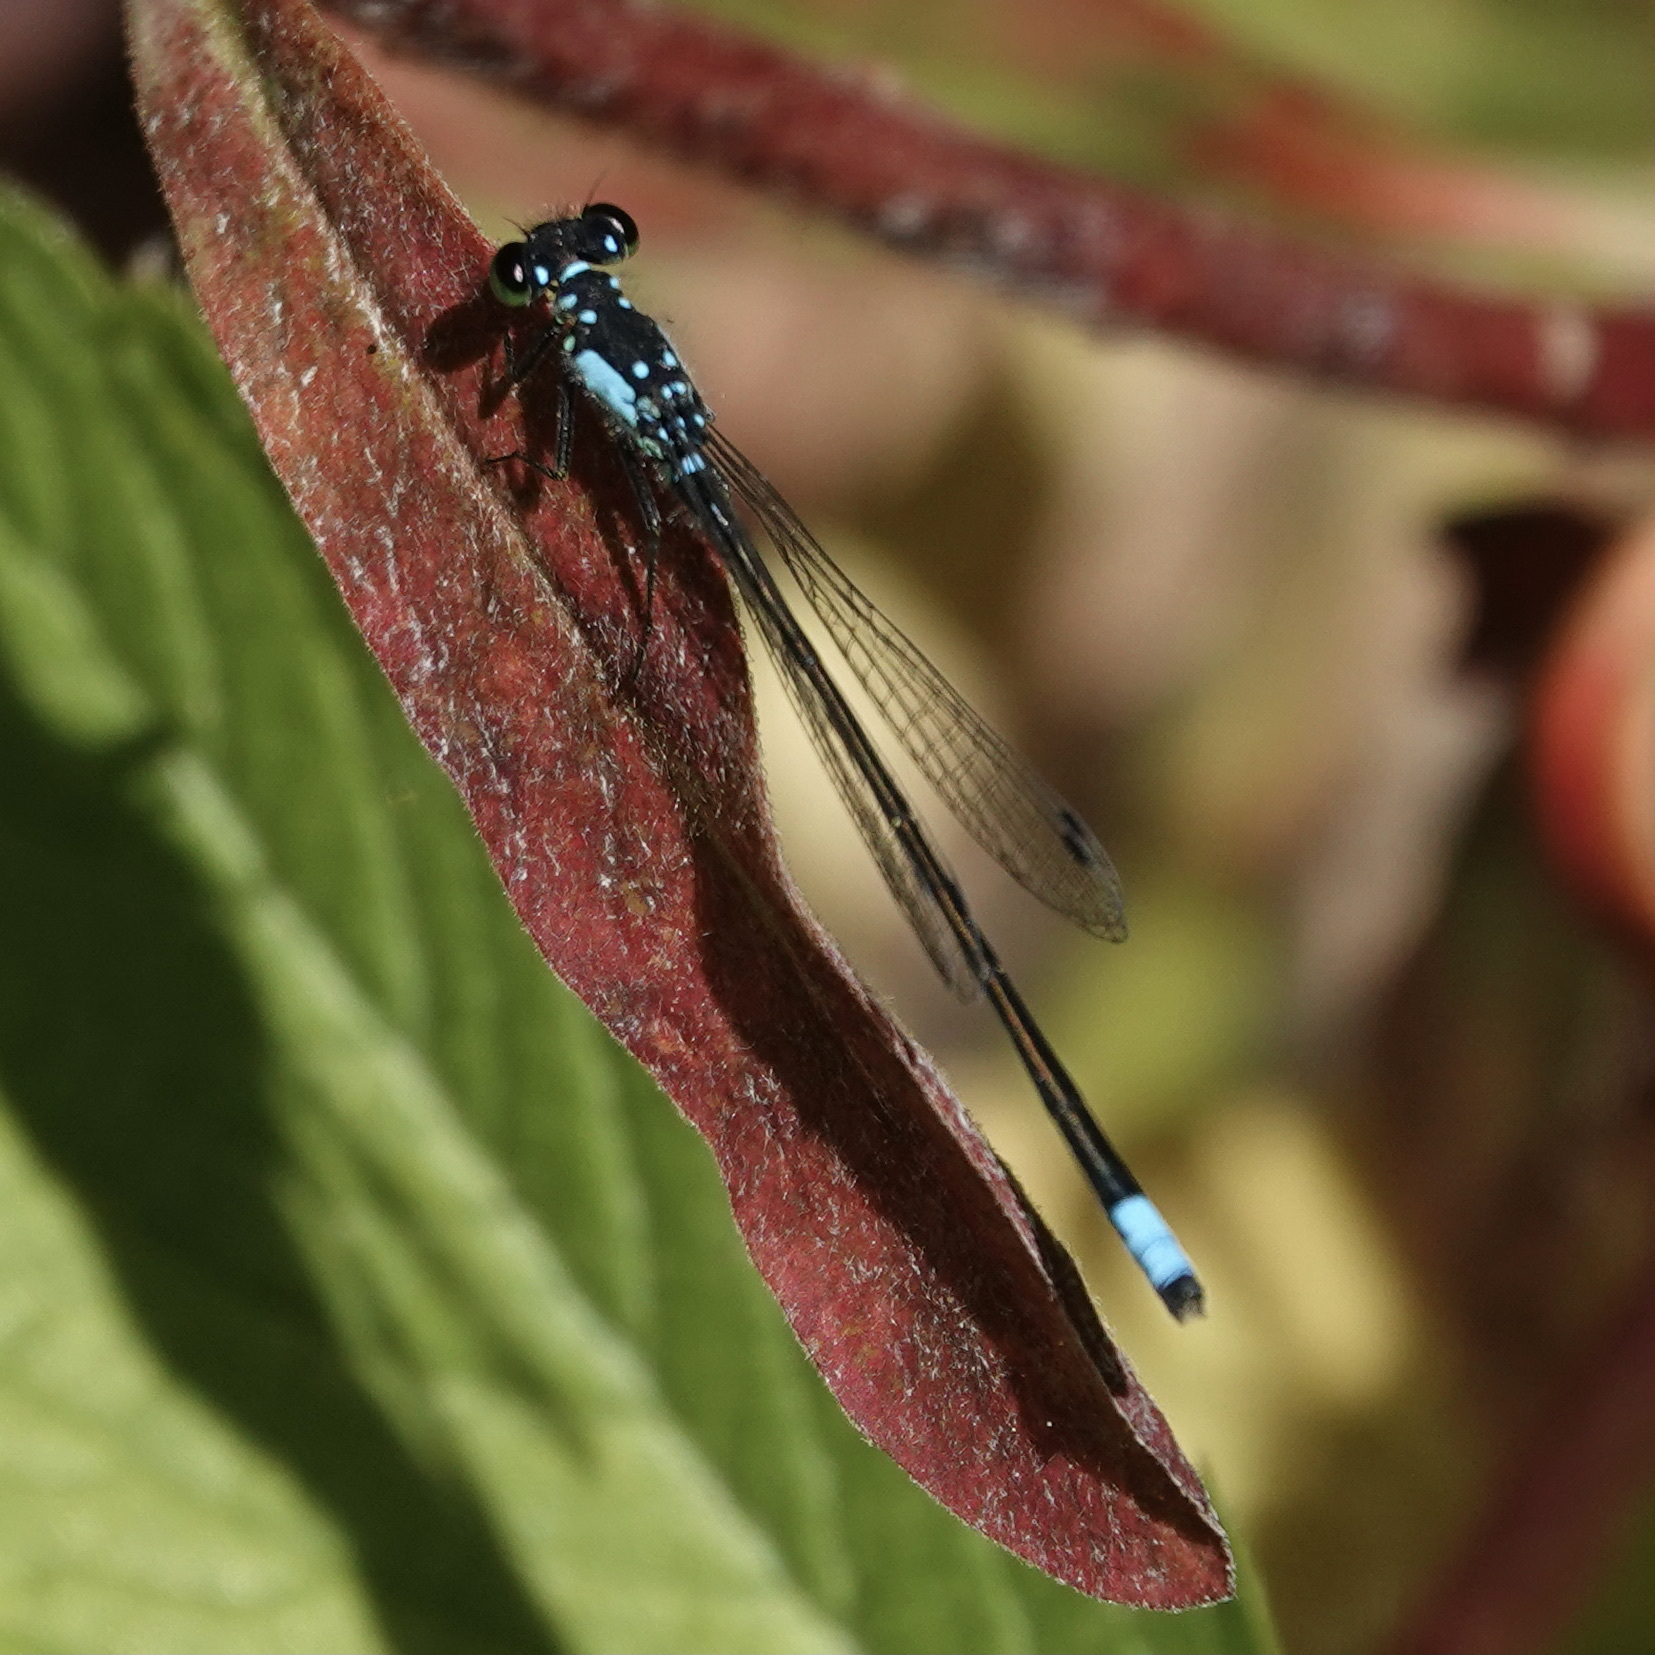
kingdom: Animalia
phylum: Arthropoda
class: Insecta
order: Odonata
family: Coenagrionidae
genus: Ischnura
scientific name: Ischnura cervula
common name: Pacific forktail
